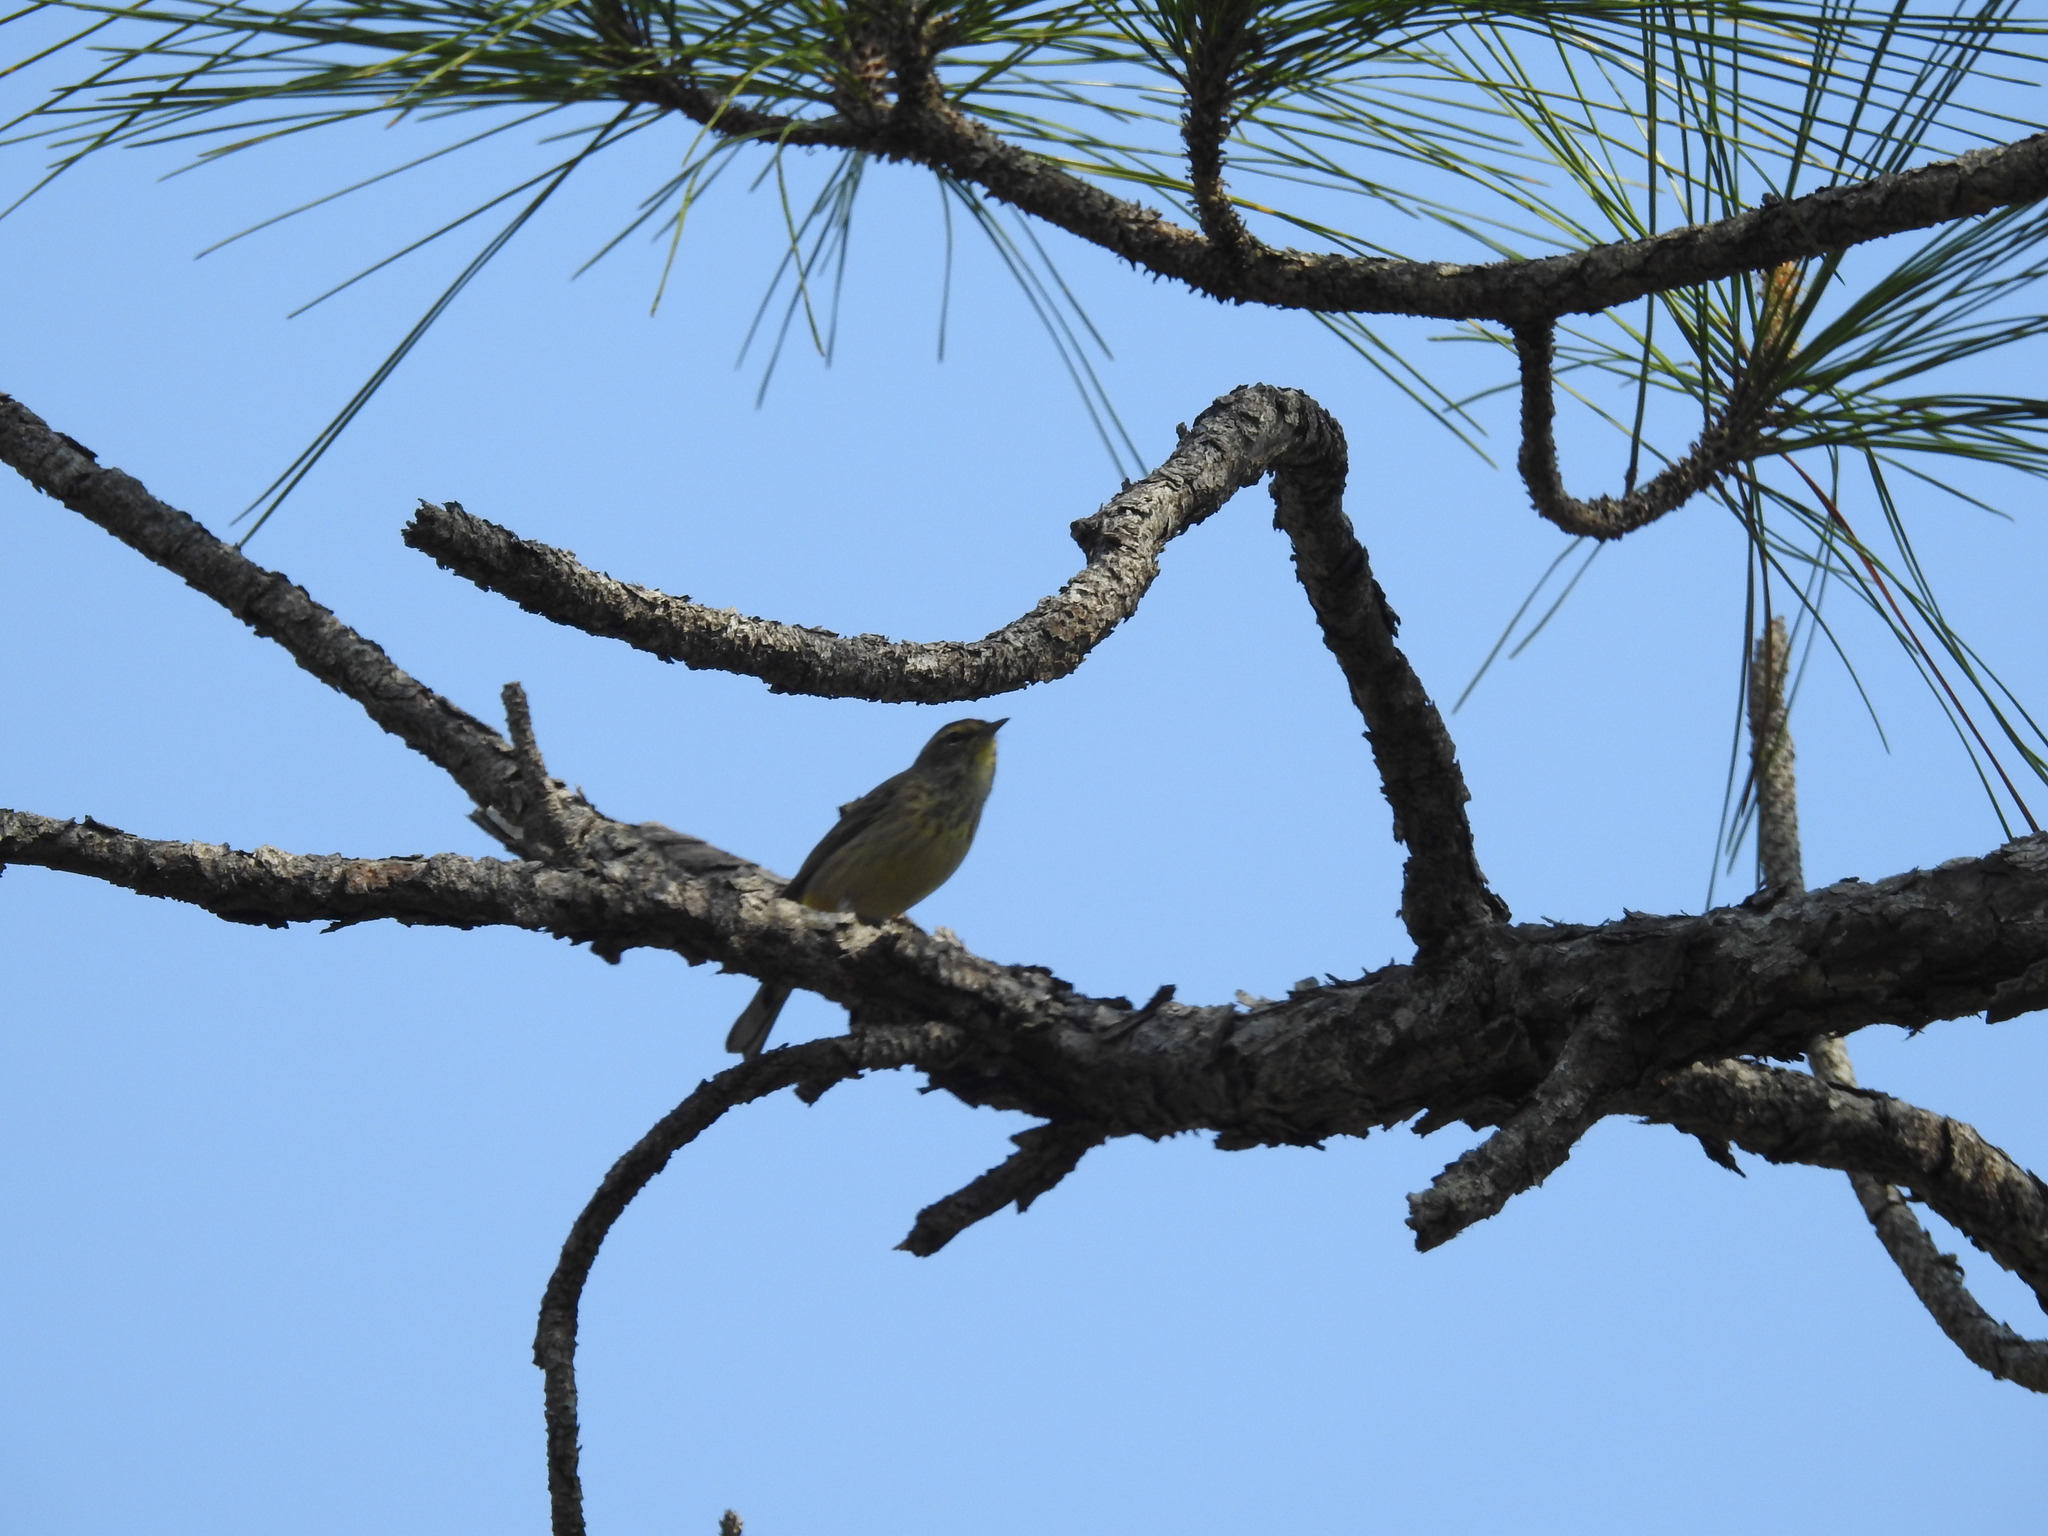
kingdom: Animalia
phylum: Chordata
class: Aves
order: Passeriformes
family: Parulidae
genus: Setophaga
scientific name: Setophaga pinus
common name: Pine warbler
